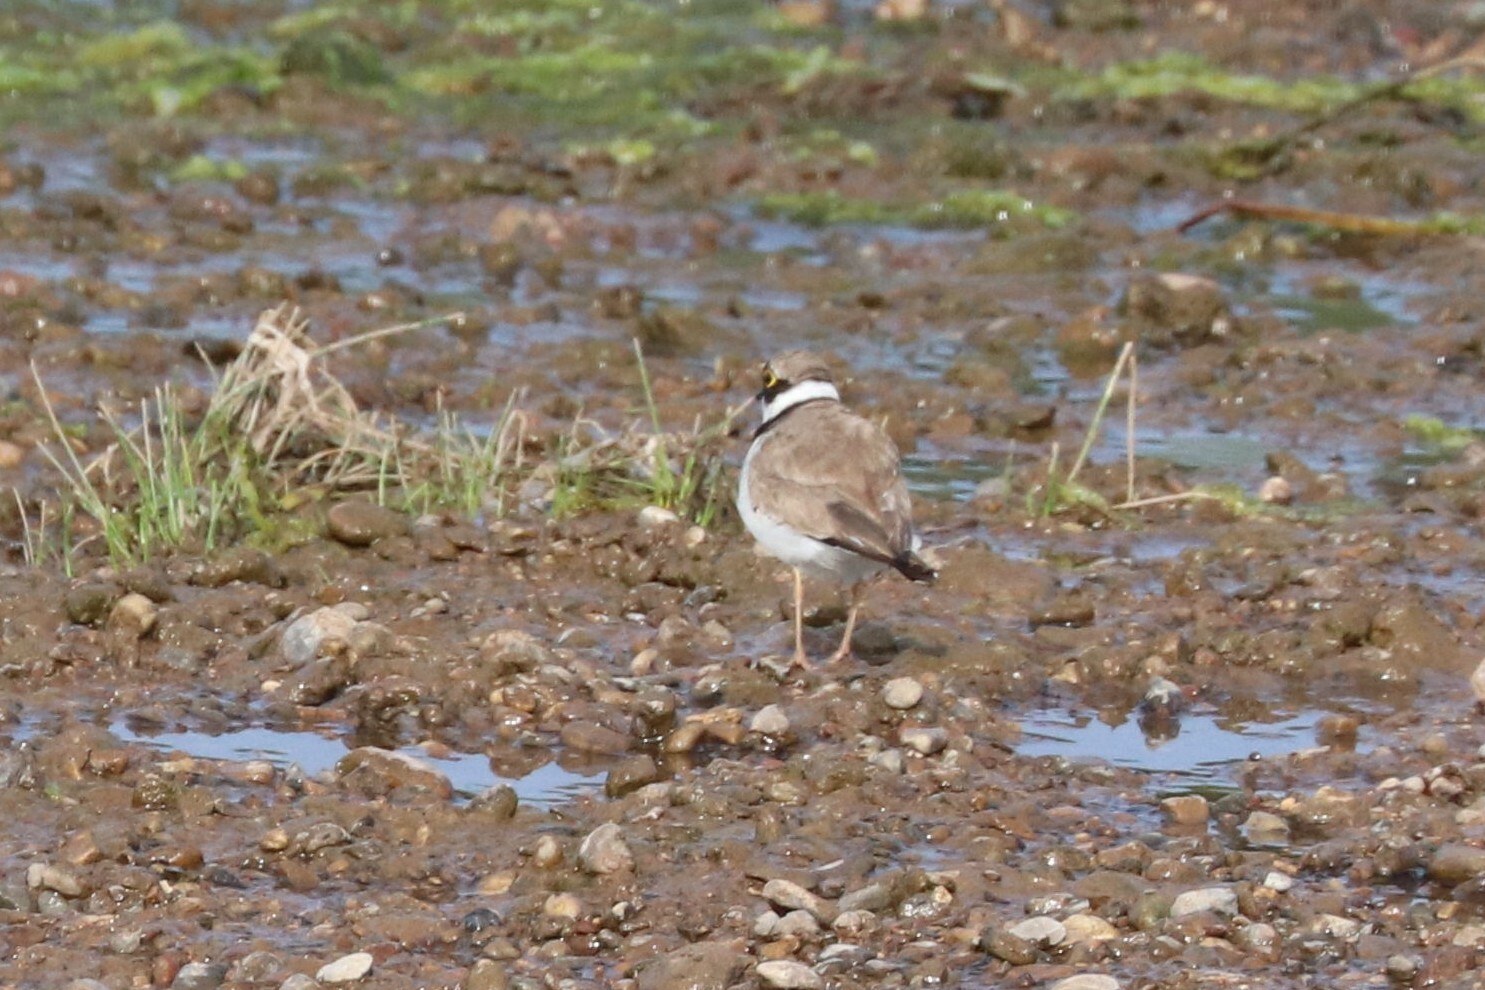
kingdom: Animalia
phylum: Chordata
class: Aves
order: Charadriiformes
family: Charadriidae
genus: Charadrius
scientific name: Charadrius dubius
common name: Little ringed plover
